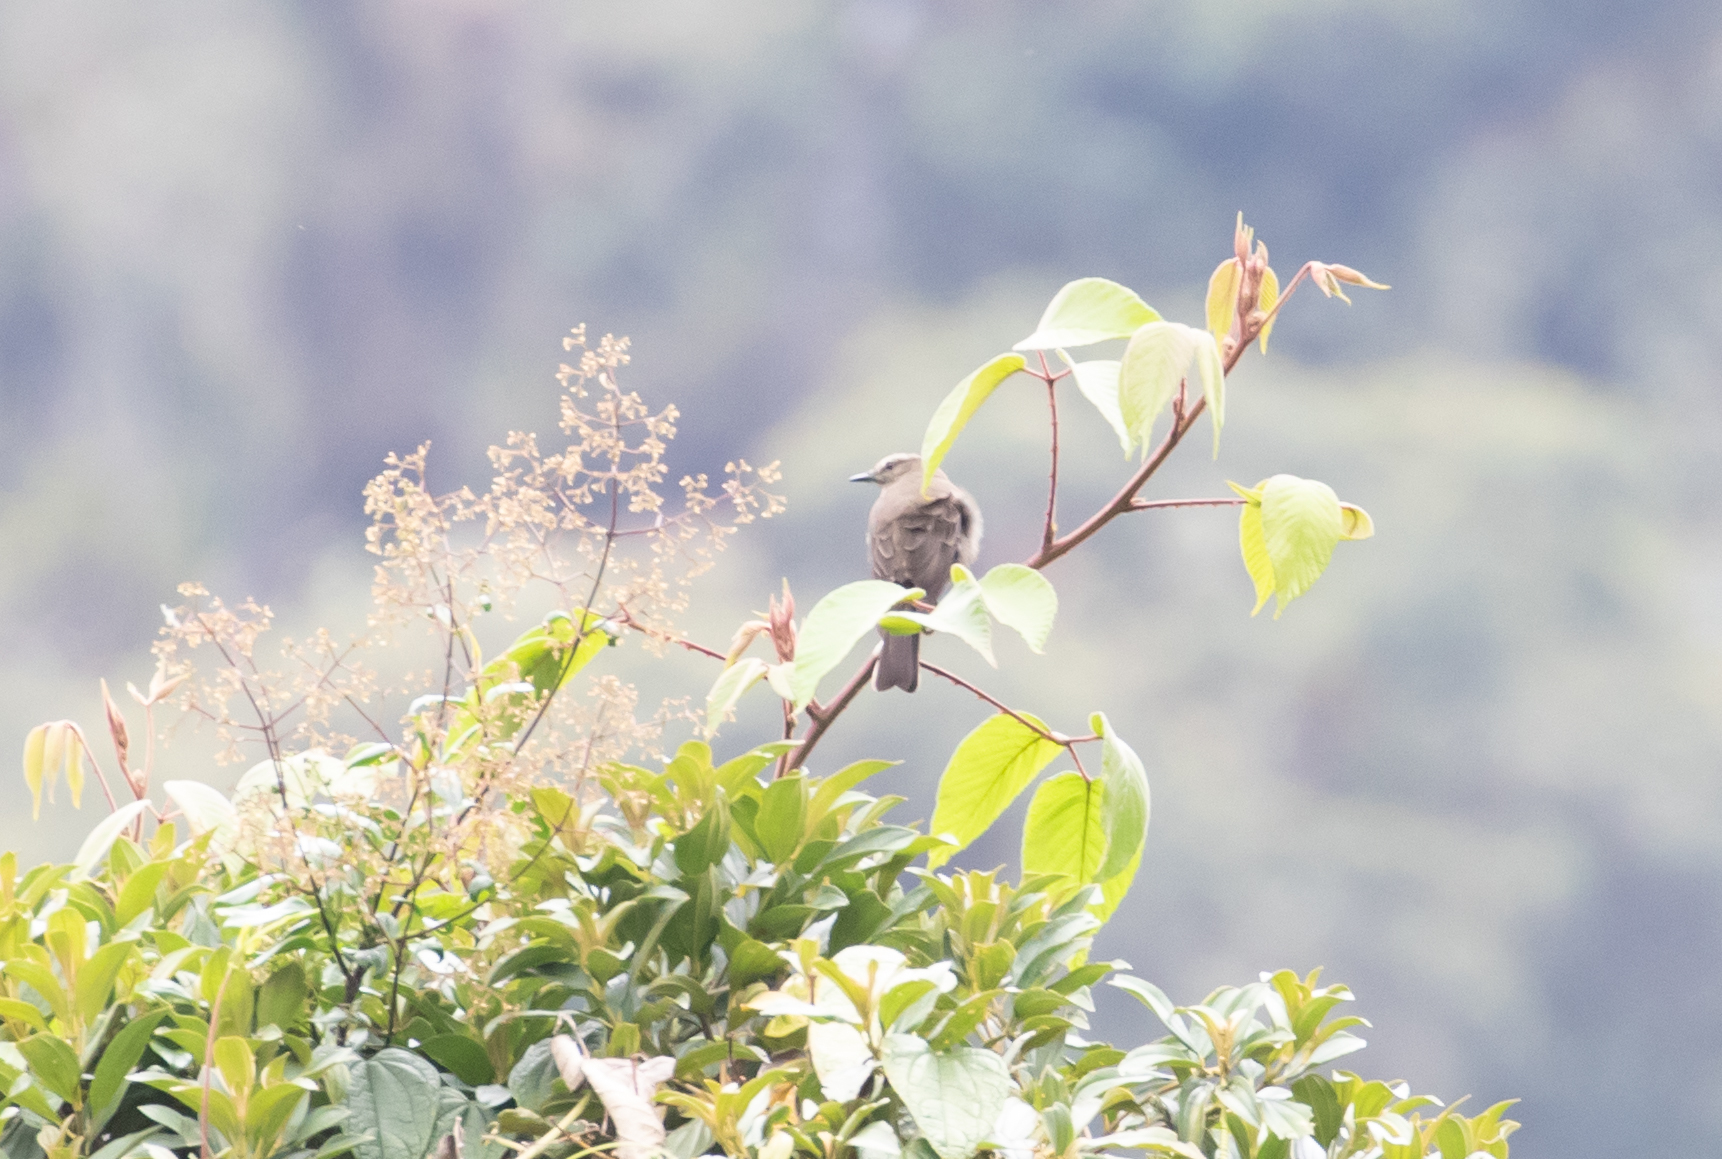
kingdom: Animalia
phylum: Chordata
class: Aves
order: Passeriformes
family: Tyrannidae
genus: Myiotheretes
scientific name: Myiotheretes fumigatus
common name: Smoky bush tyrant
